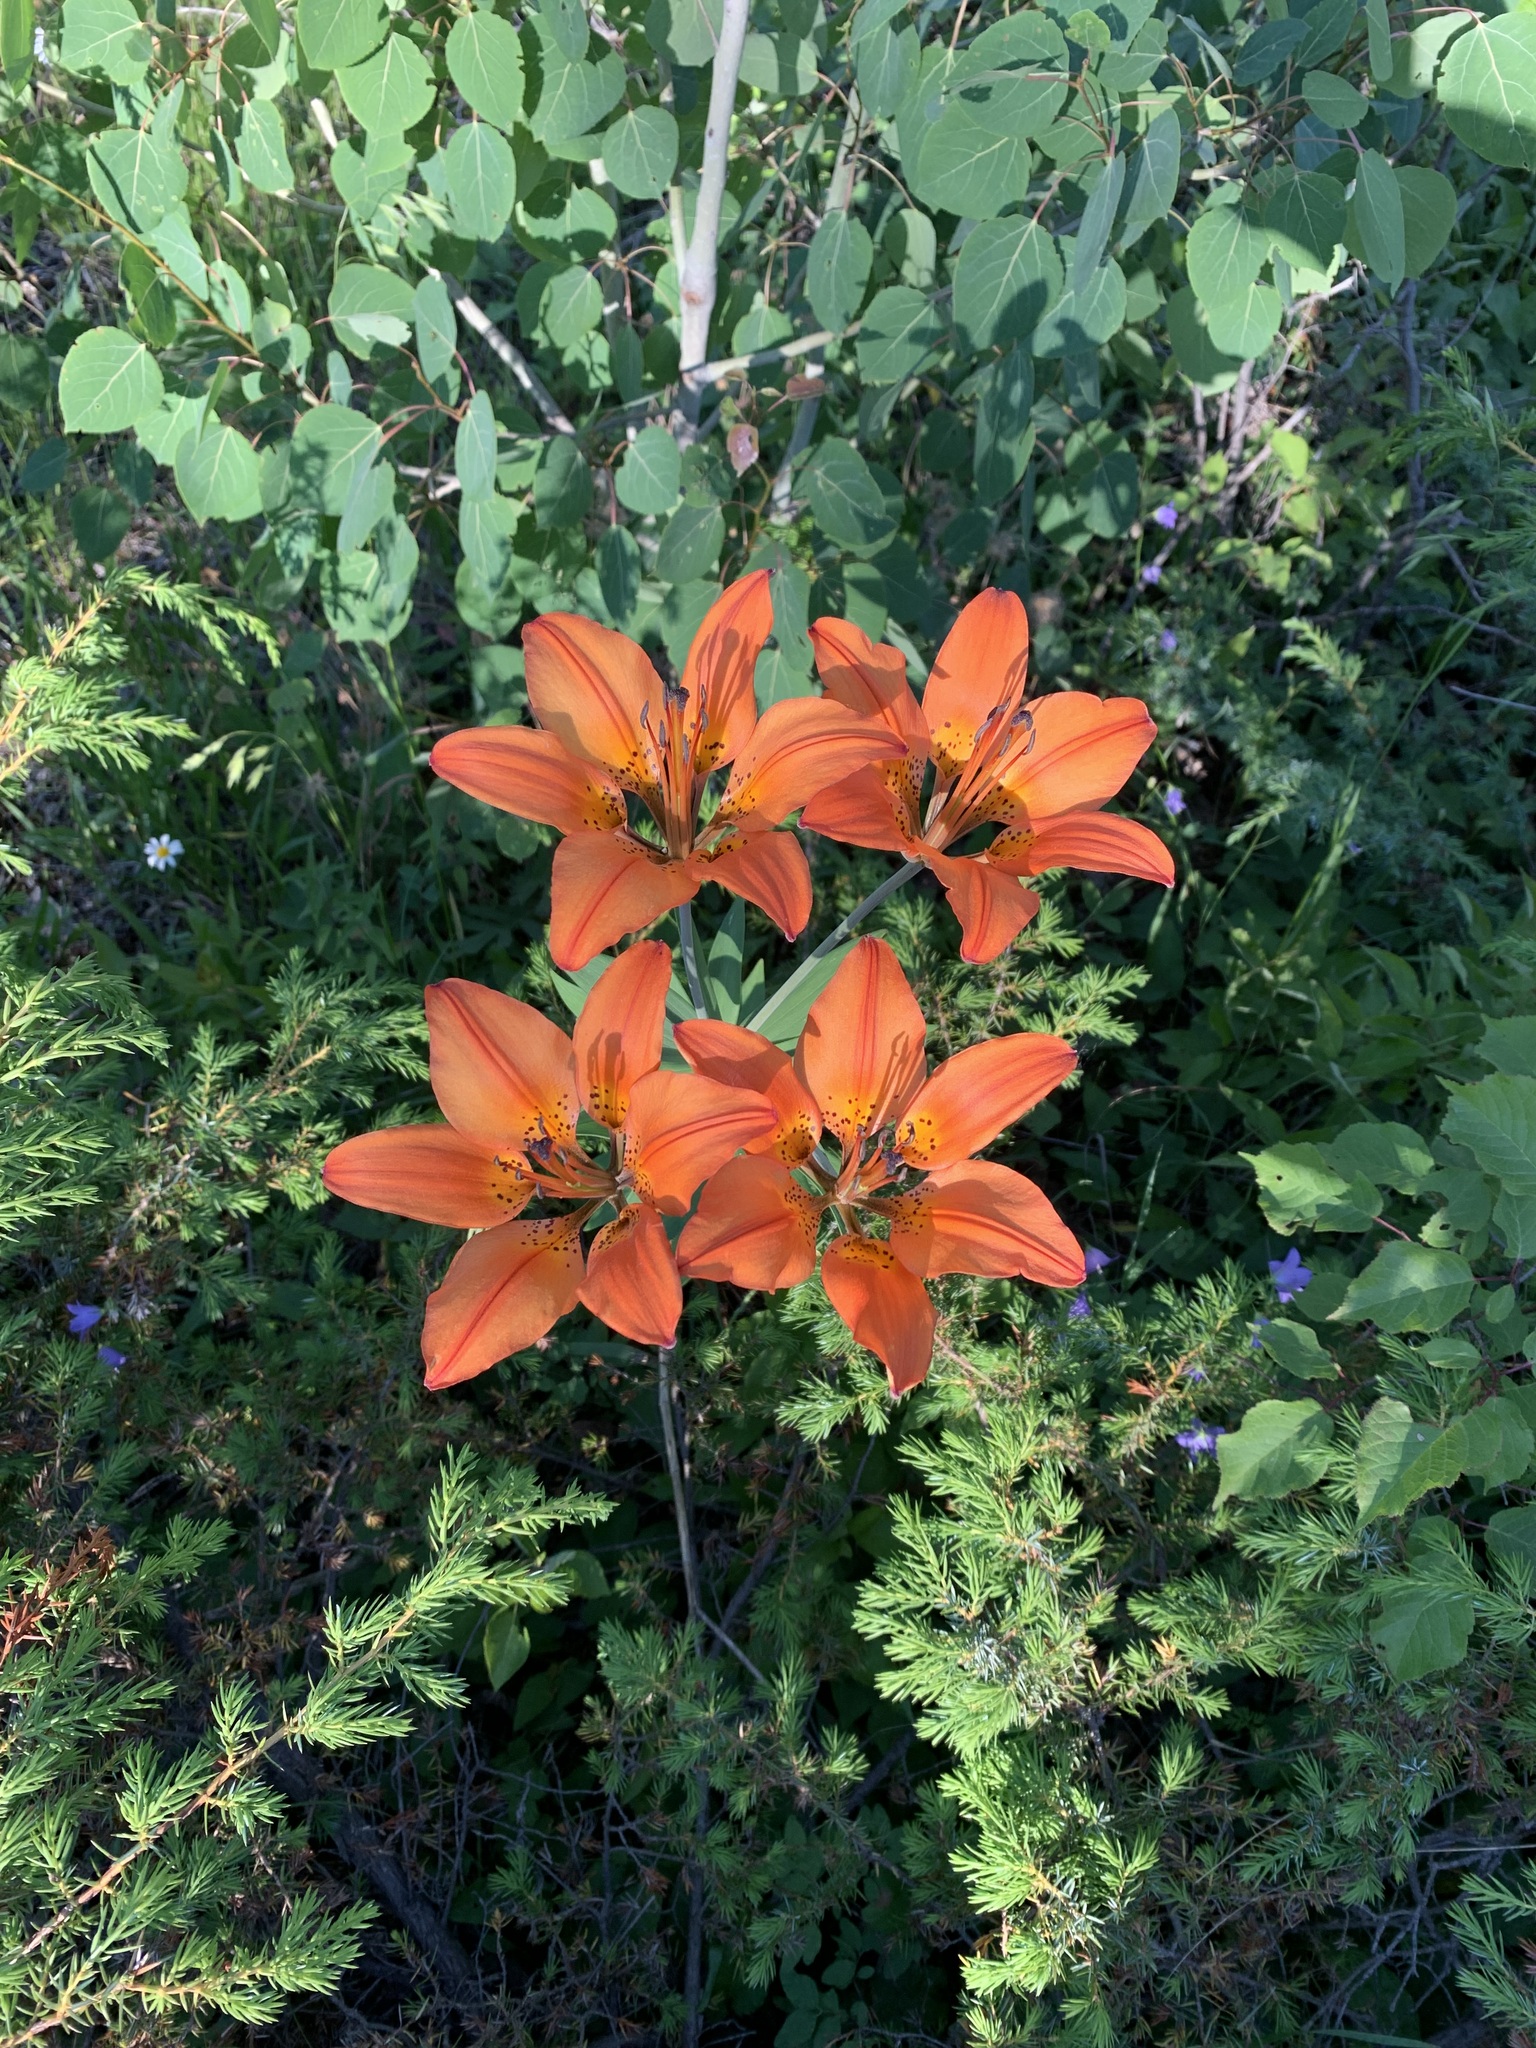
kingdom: Plantae
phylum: Tracheophyta
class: Liliopsida
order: Liliales
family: Liliaceae
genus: Lilium
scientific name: Lilium philadelphicum
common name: Red lily
